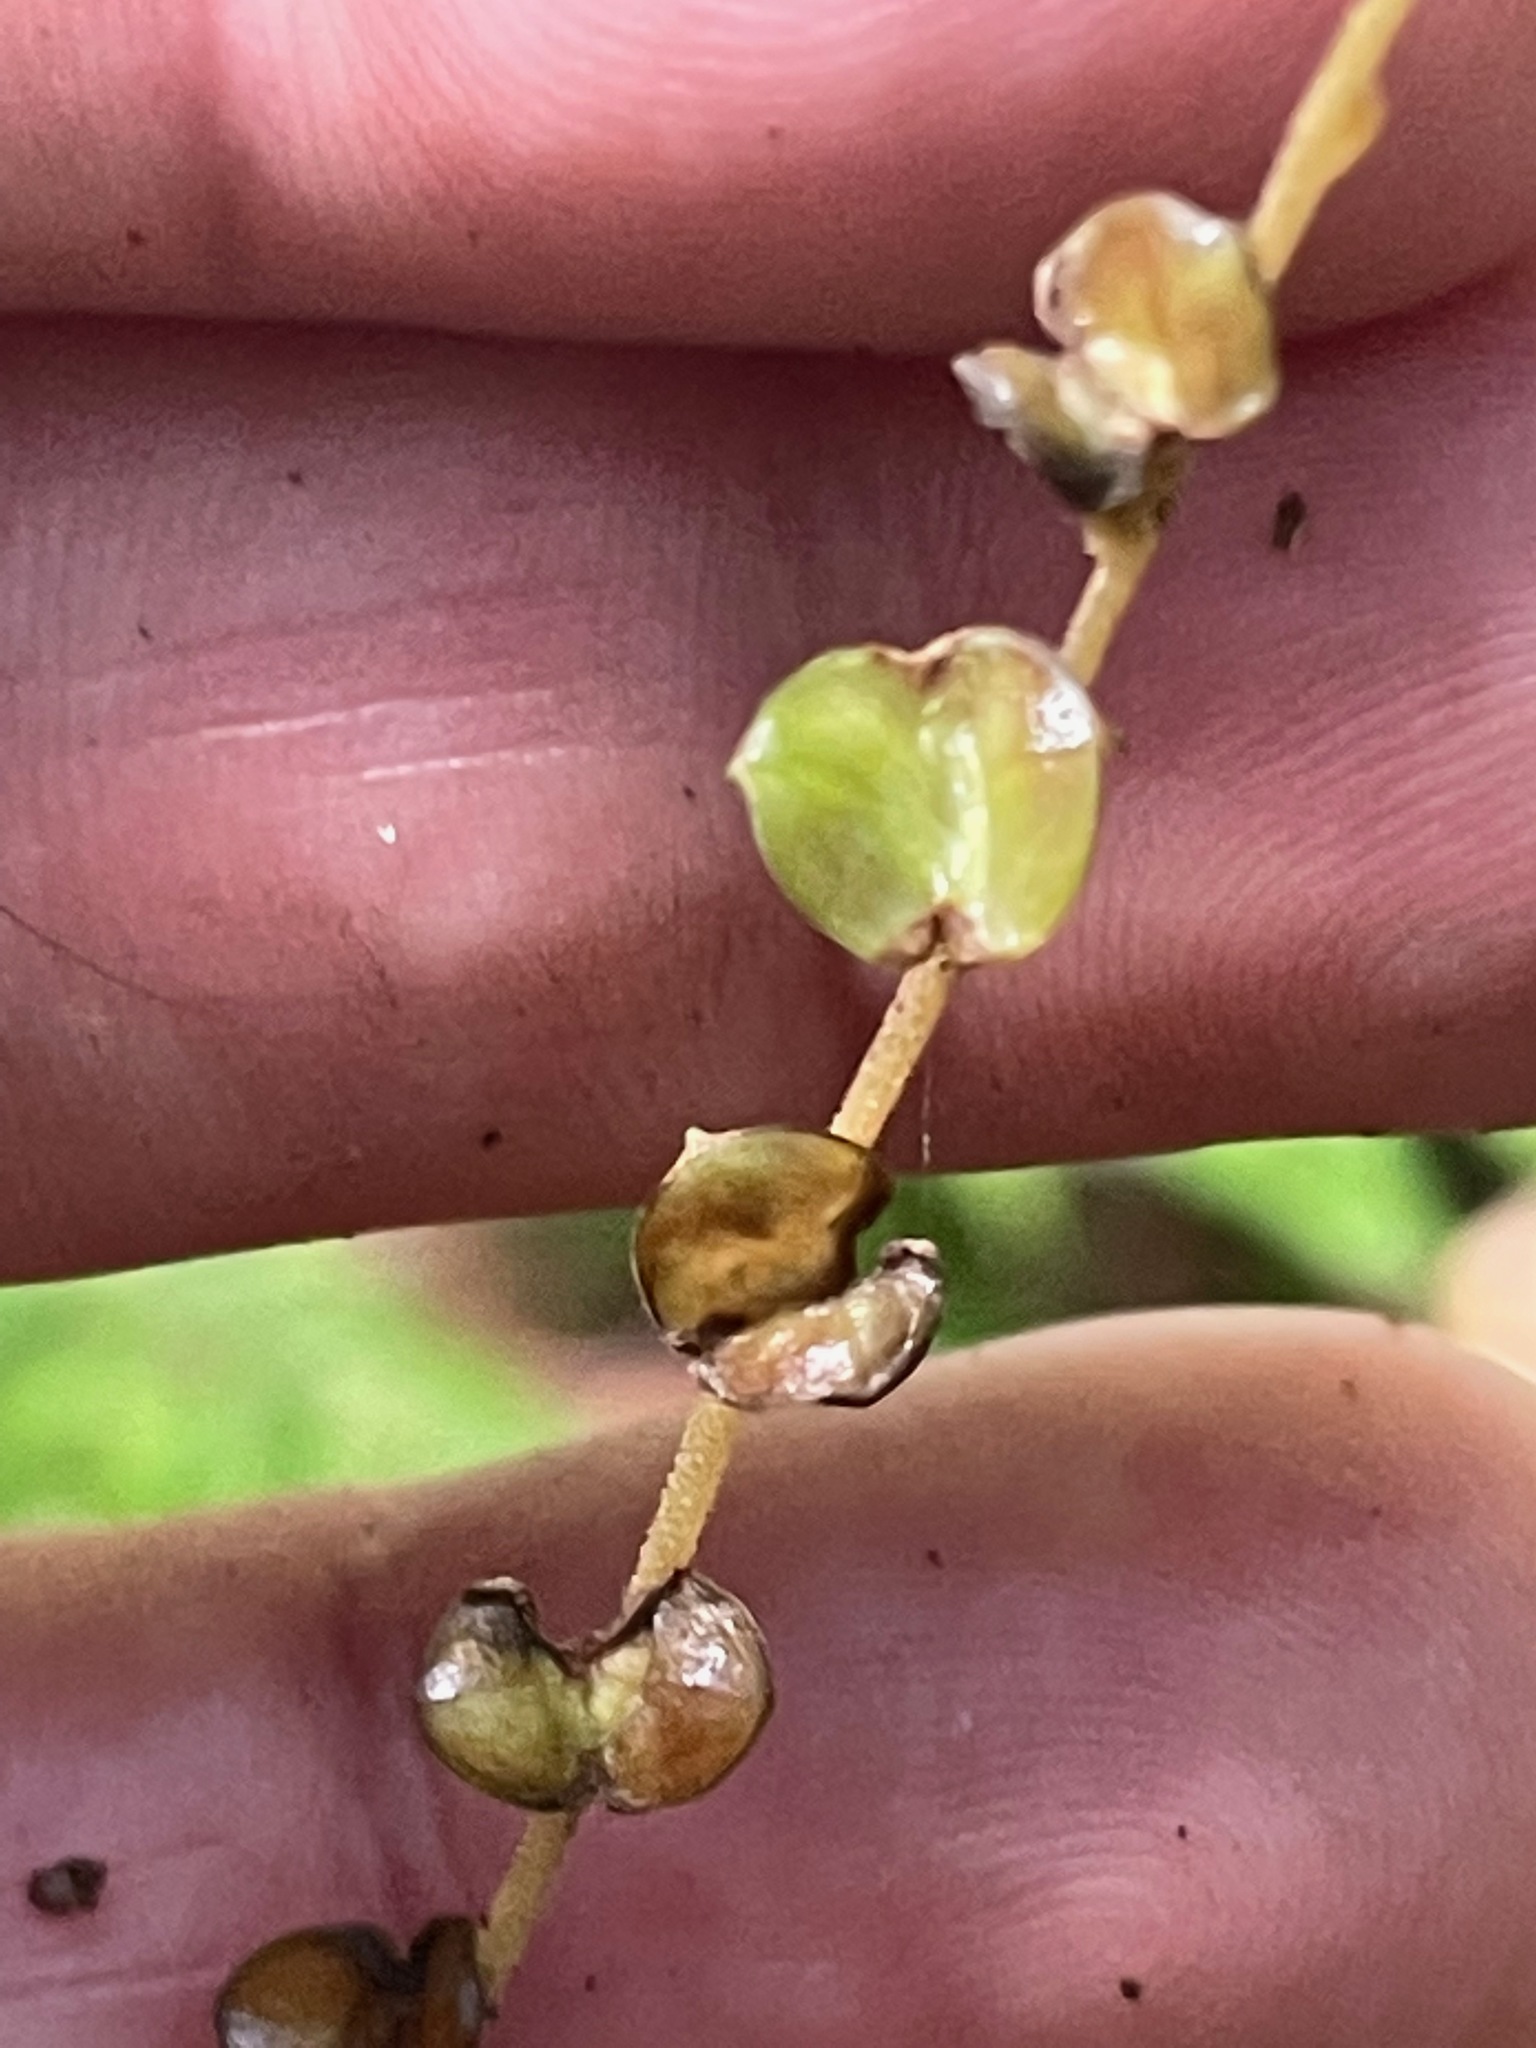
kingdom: Plantae
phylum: Tracheophyta
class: Magnoliopsida
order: Saxifragales
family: Saxifragaceae
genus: Mitella
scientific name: Mitella diphylla
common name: Coolwort
